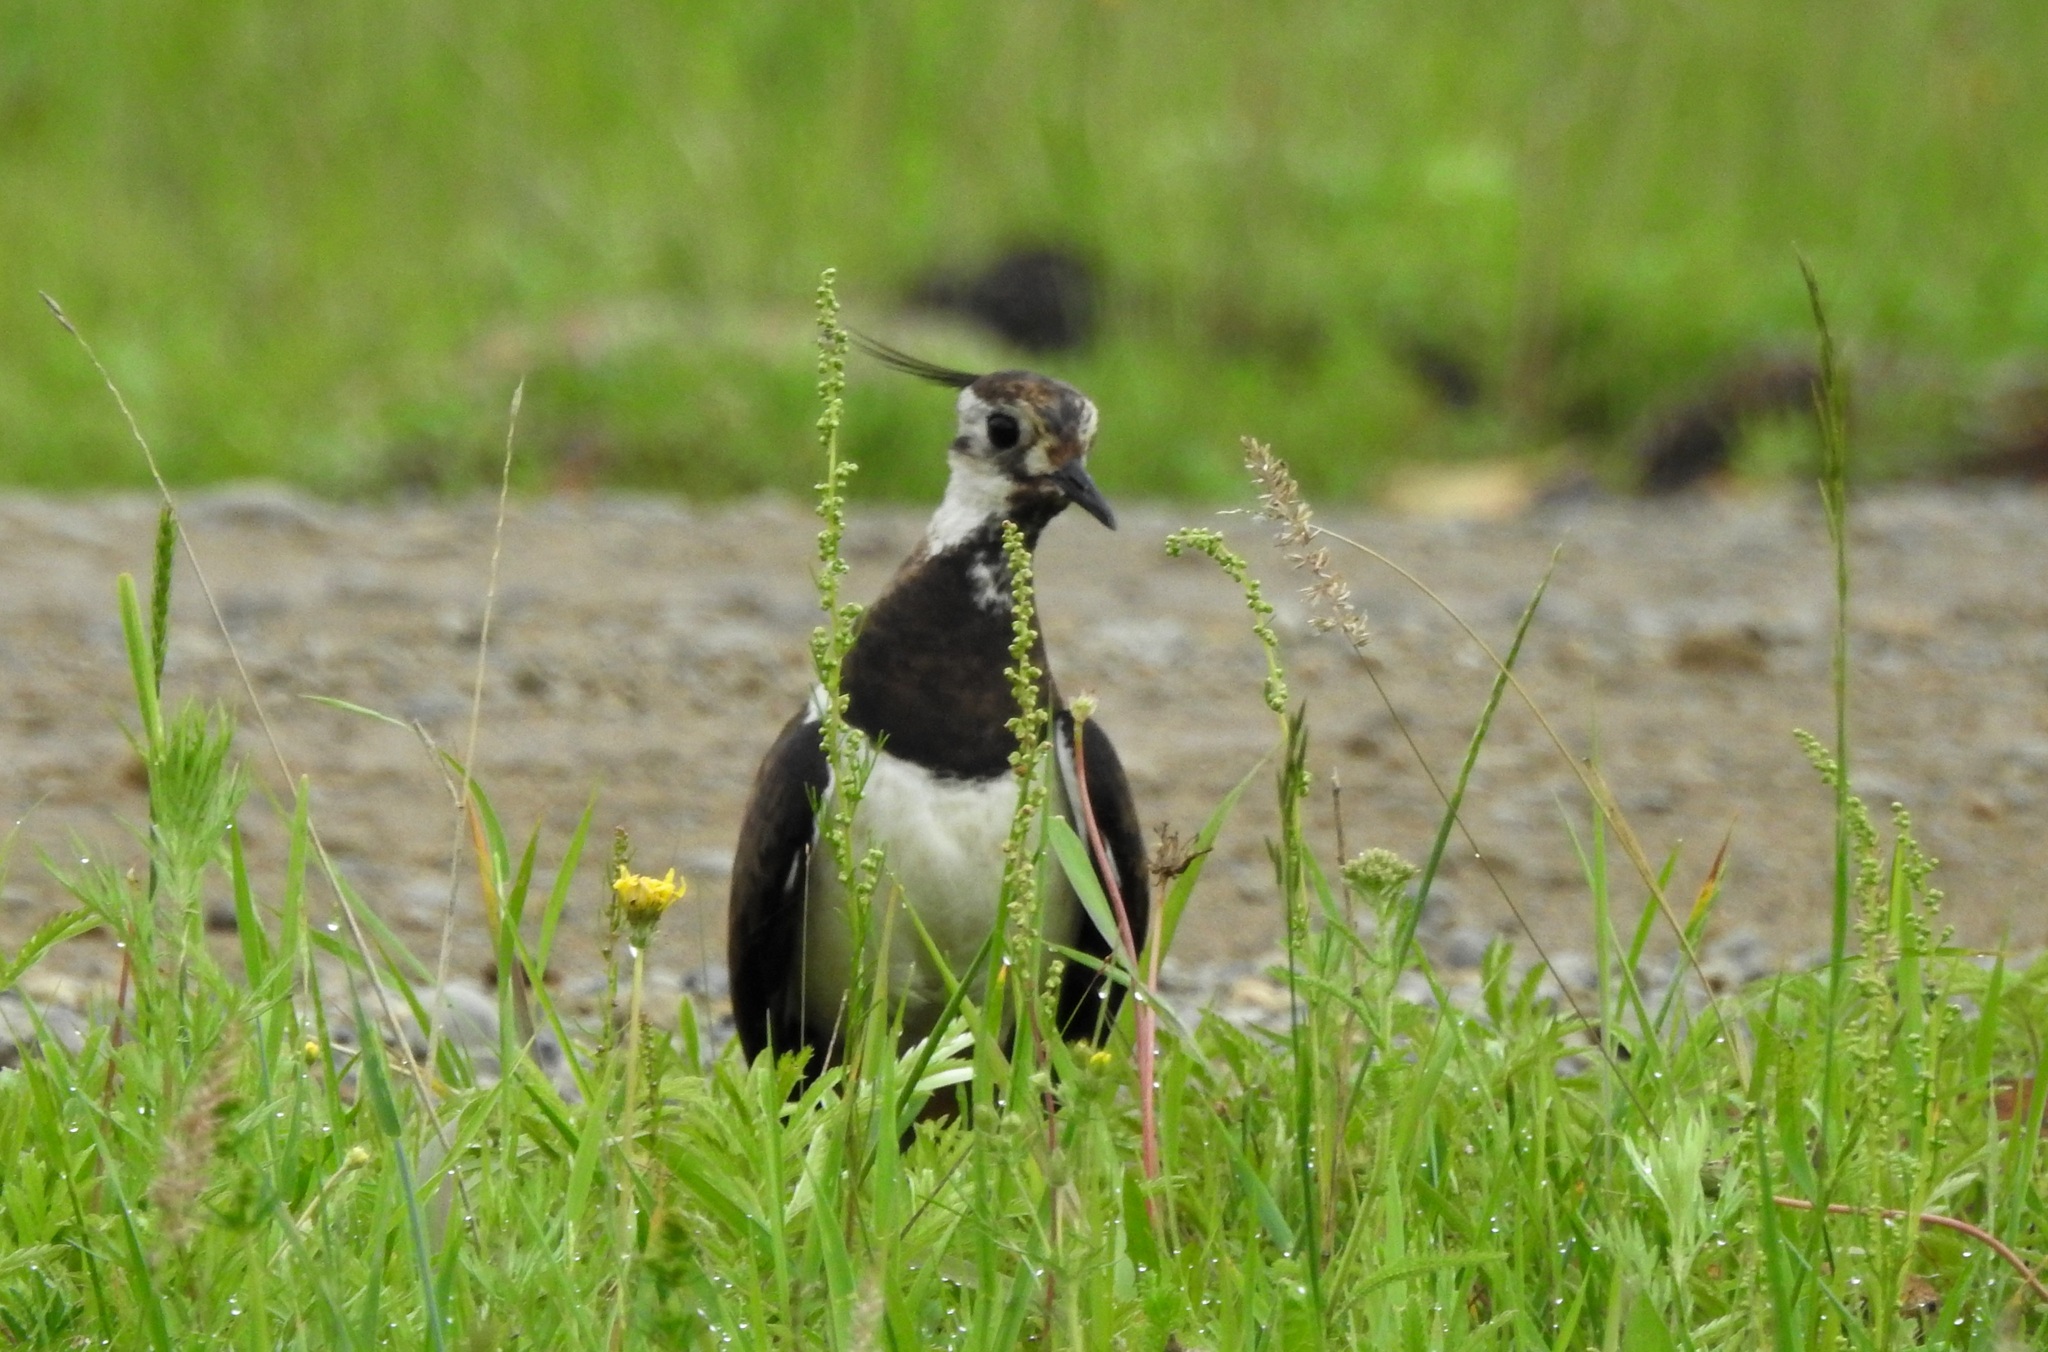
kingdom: Animalia
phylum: Chordata
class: Aves
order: Charadriiformes
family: Charadriidae
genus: Vanellus
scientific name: Vanellus vanellus
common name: Northern lapwing
